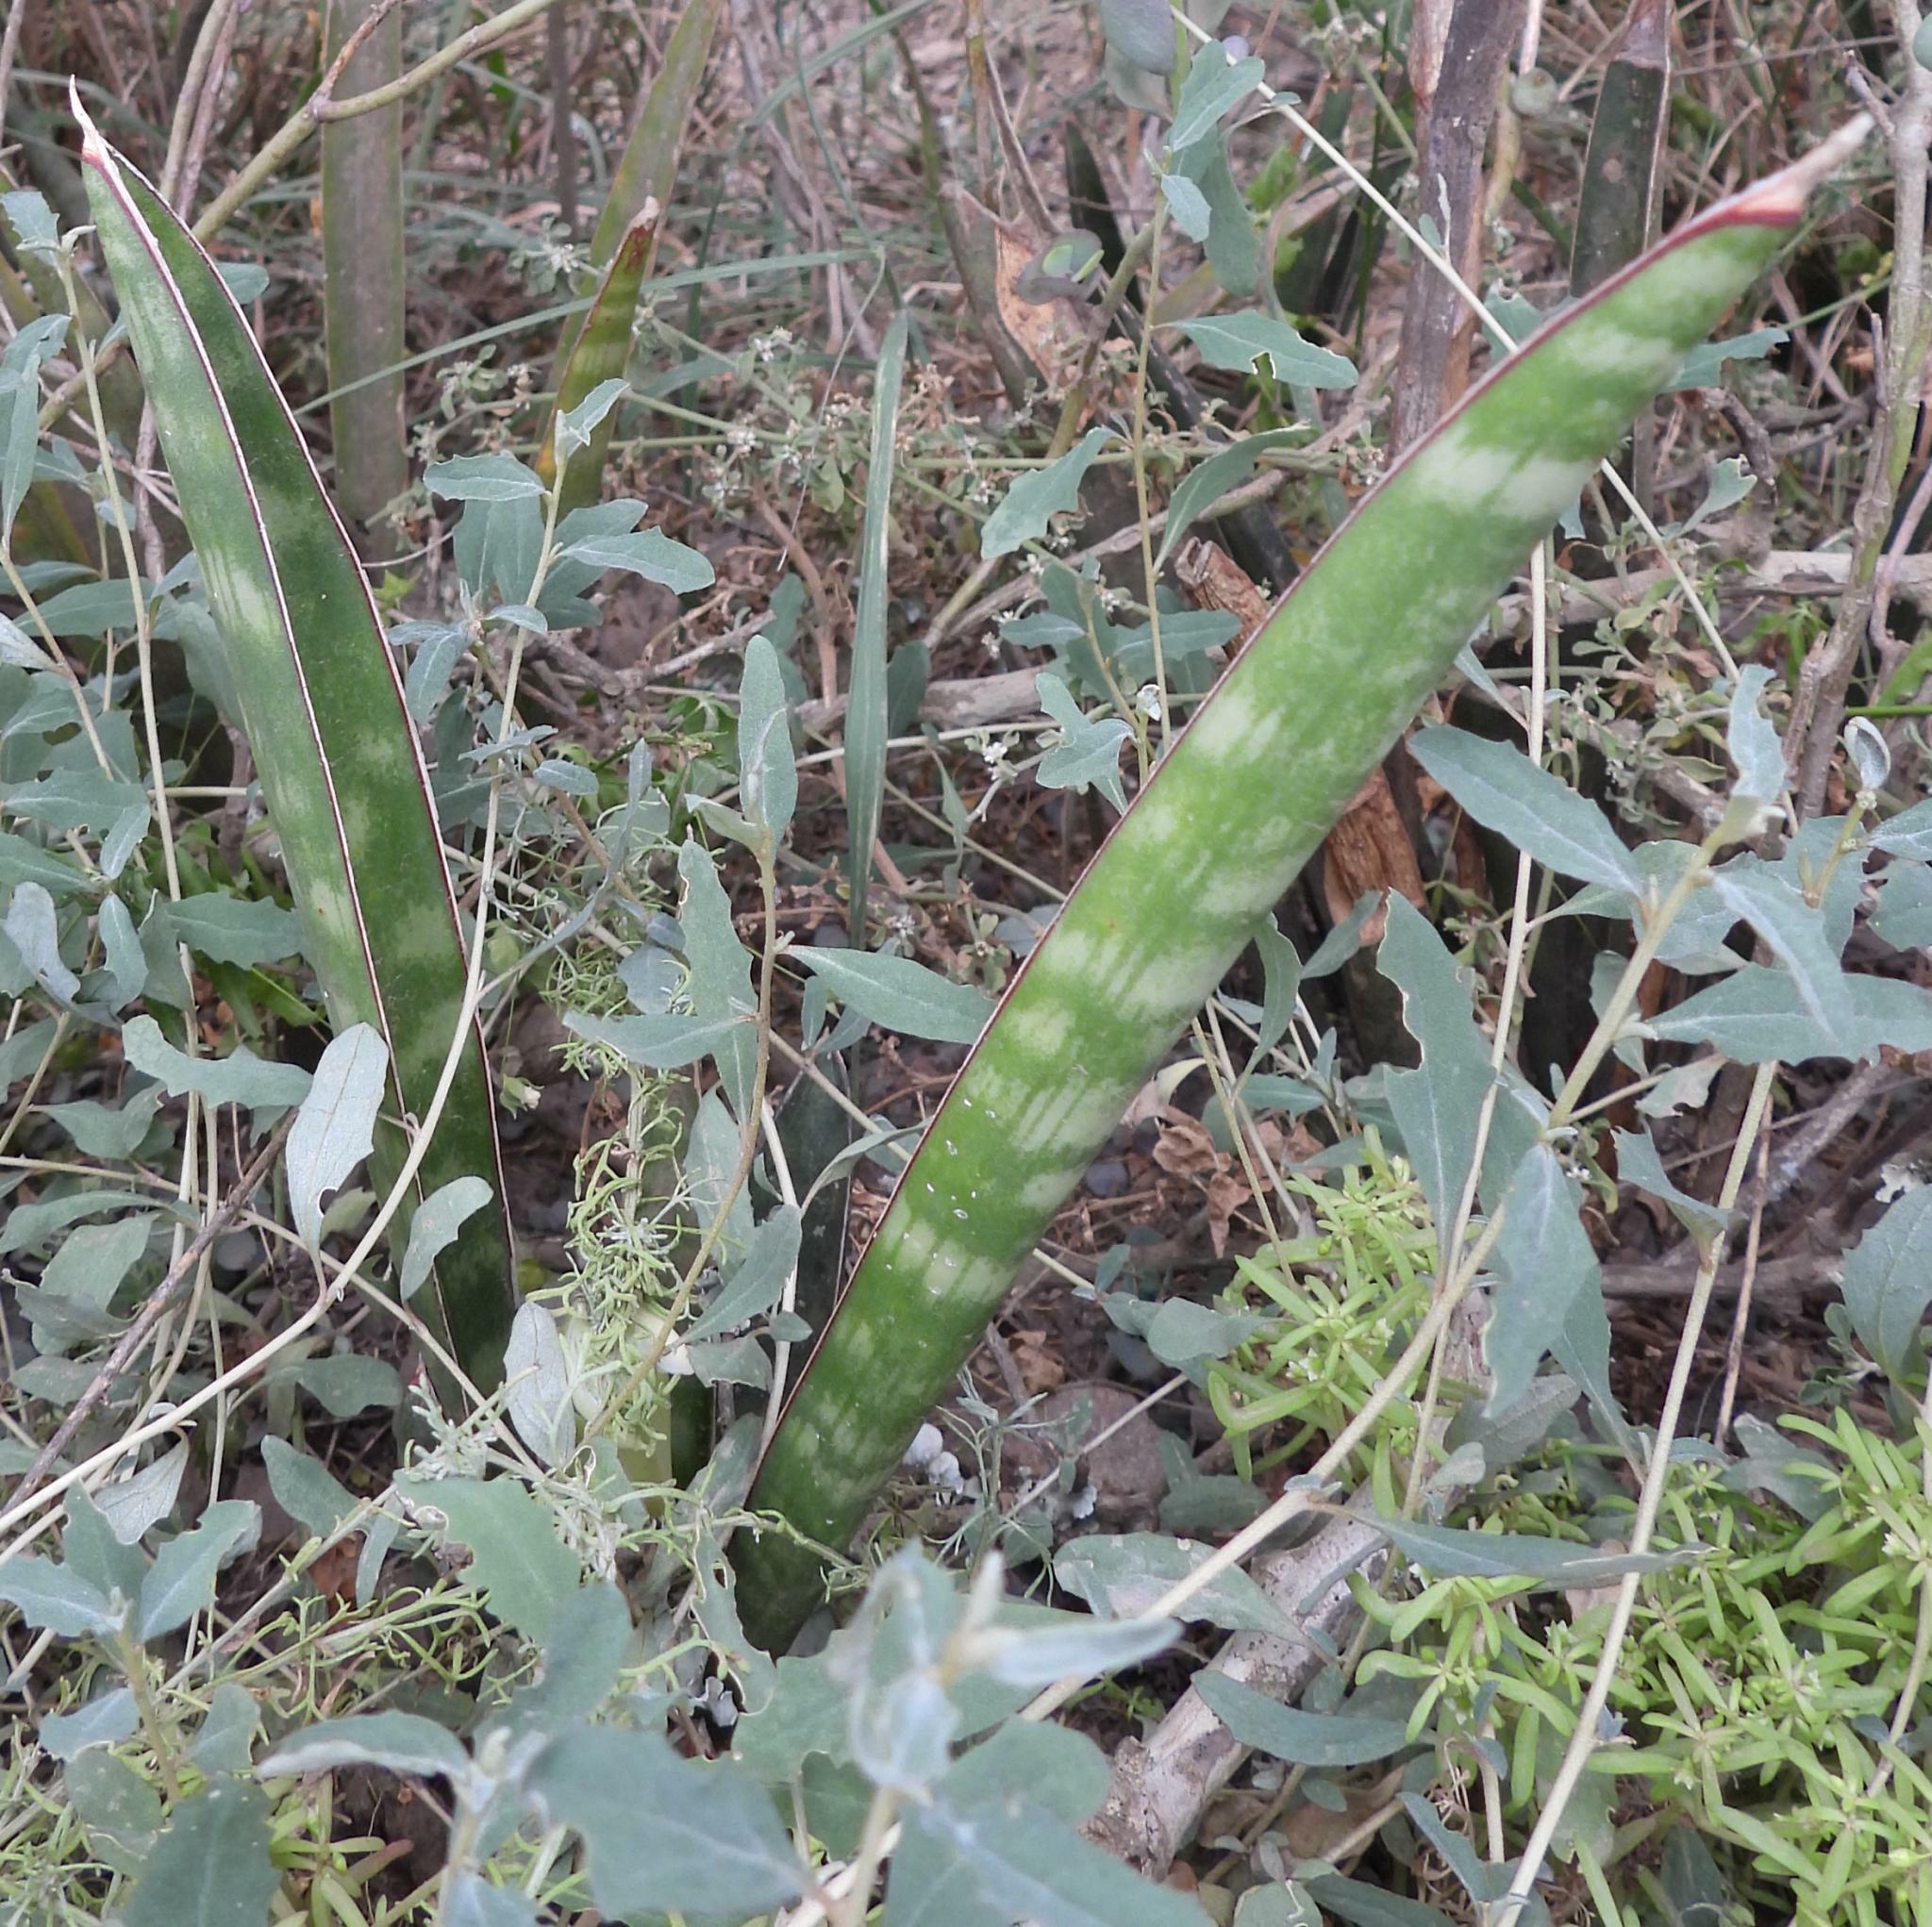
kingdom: Plantae
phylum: Tracheophyta
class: Liliopsida
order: Asparagales
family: Asparagaceae
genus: Sansevieria
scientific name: Sansevieria
